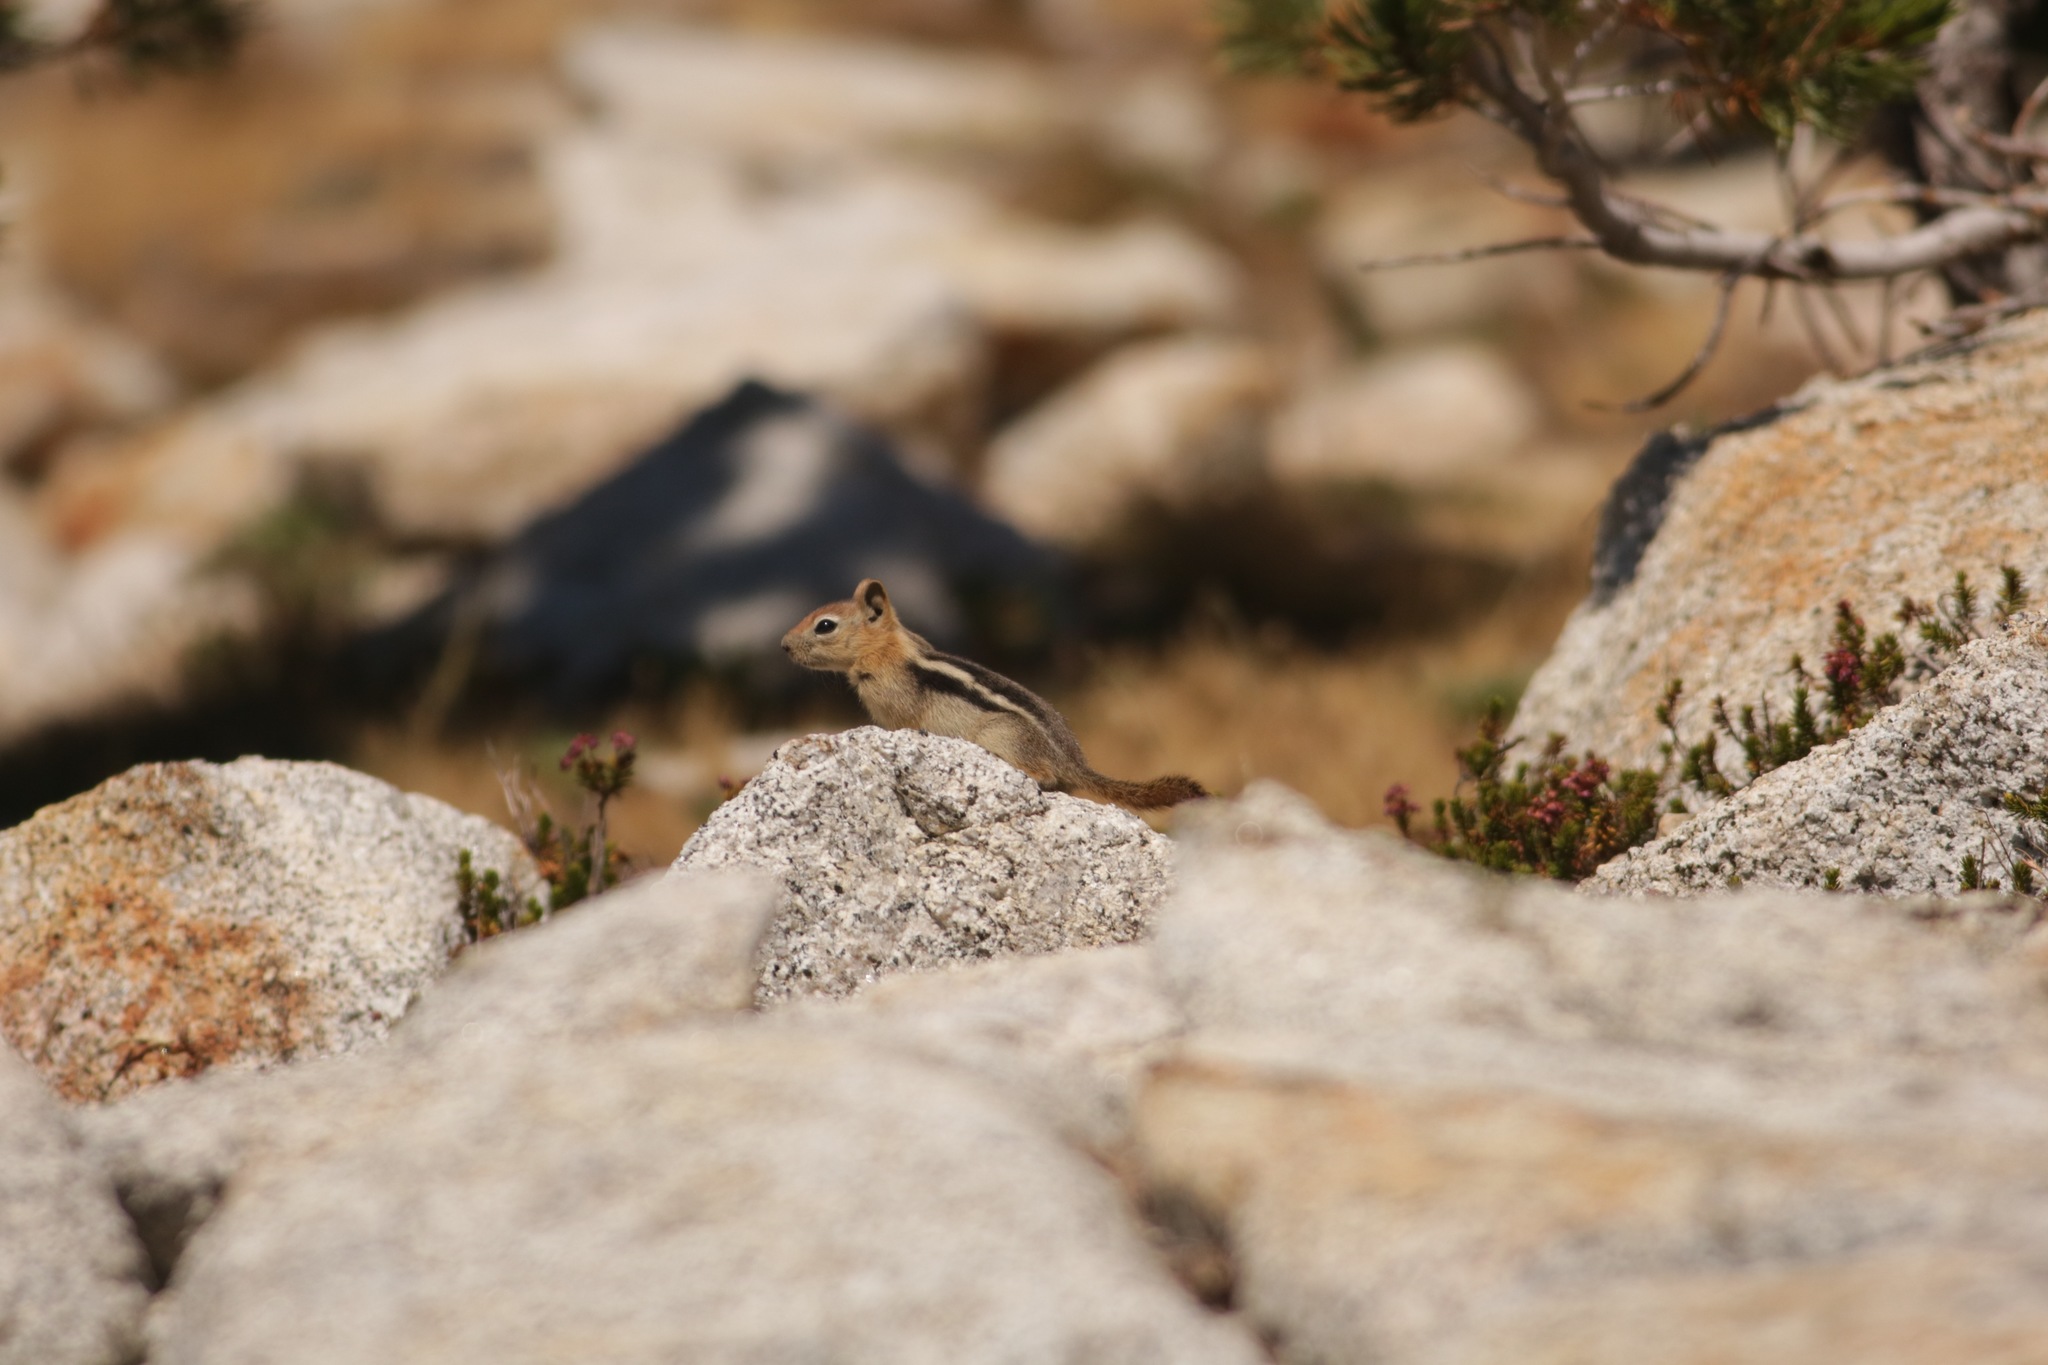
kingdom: Animalia
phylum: Chordata
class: Mammalia
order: Rodentia
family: Sciuridae
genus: Callospermophilus
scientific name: Callospermophilus lateralis
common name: Golden-mantled ground squirrel
